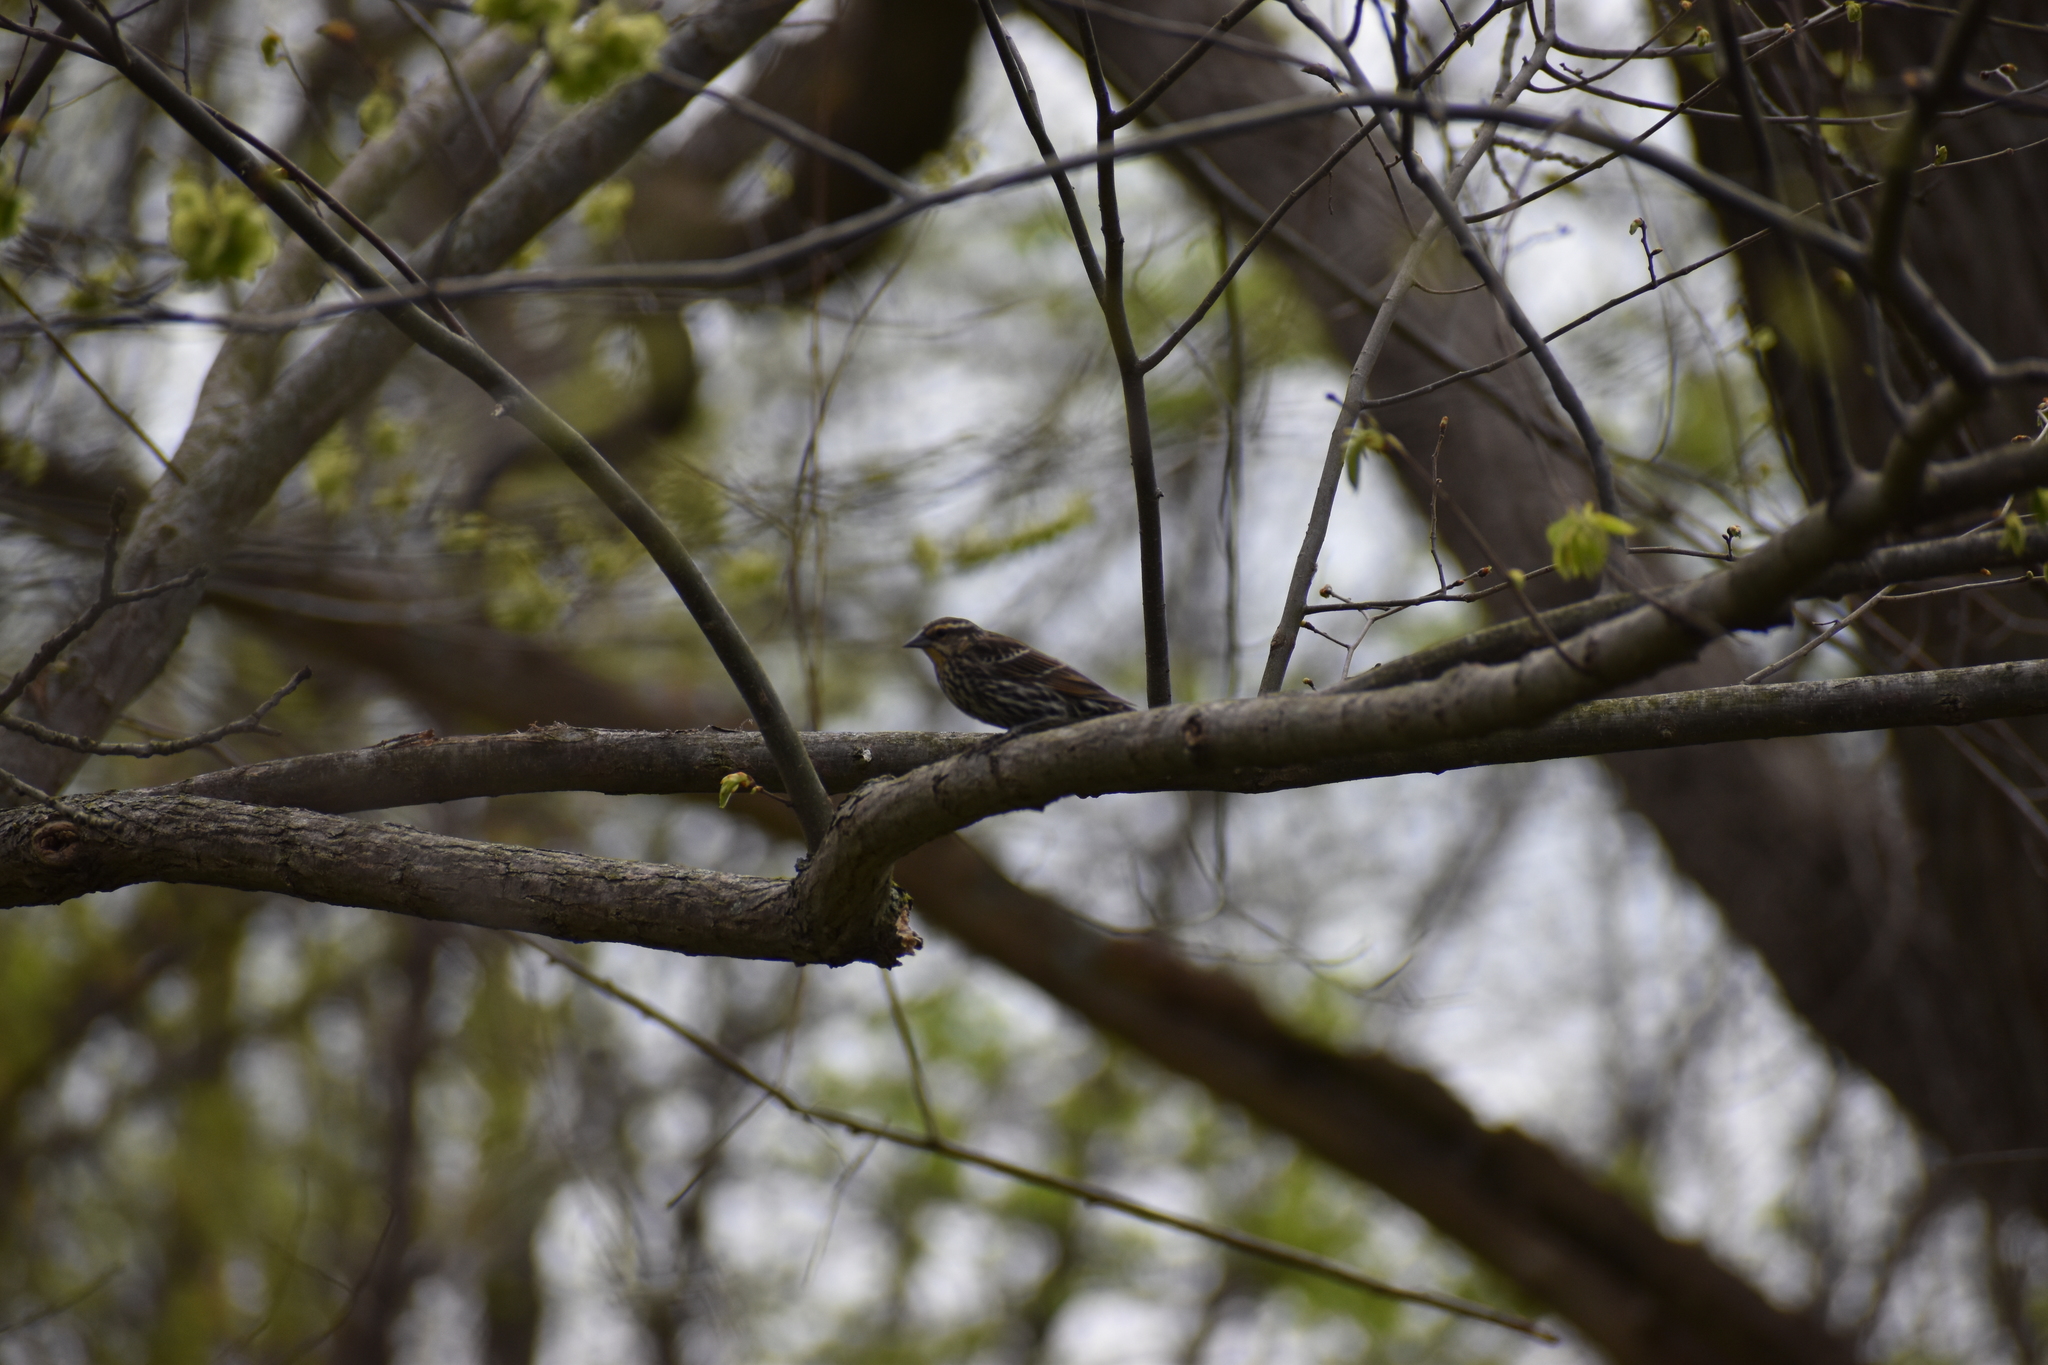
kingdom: Animalia
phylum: Chordata
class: Aves
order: Passeriformes
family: Icteridae
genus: Agelaius
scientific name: Agelaius phoeniceus
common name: Red-winged blackbird
